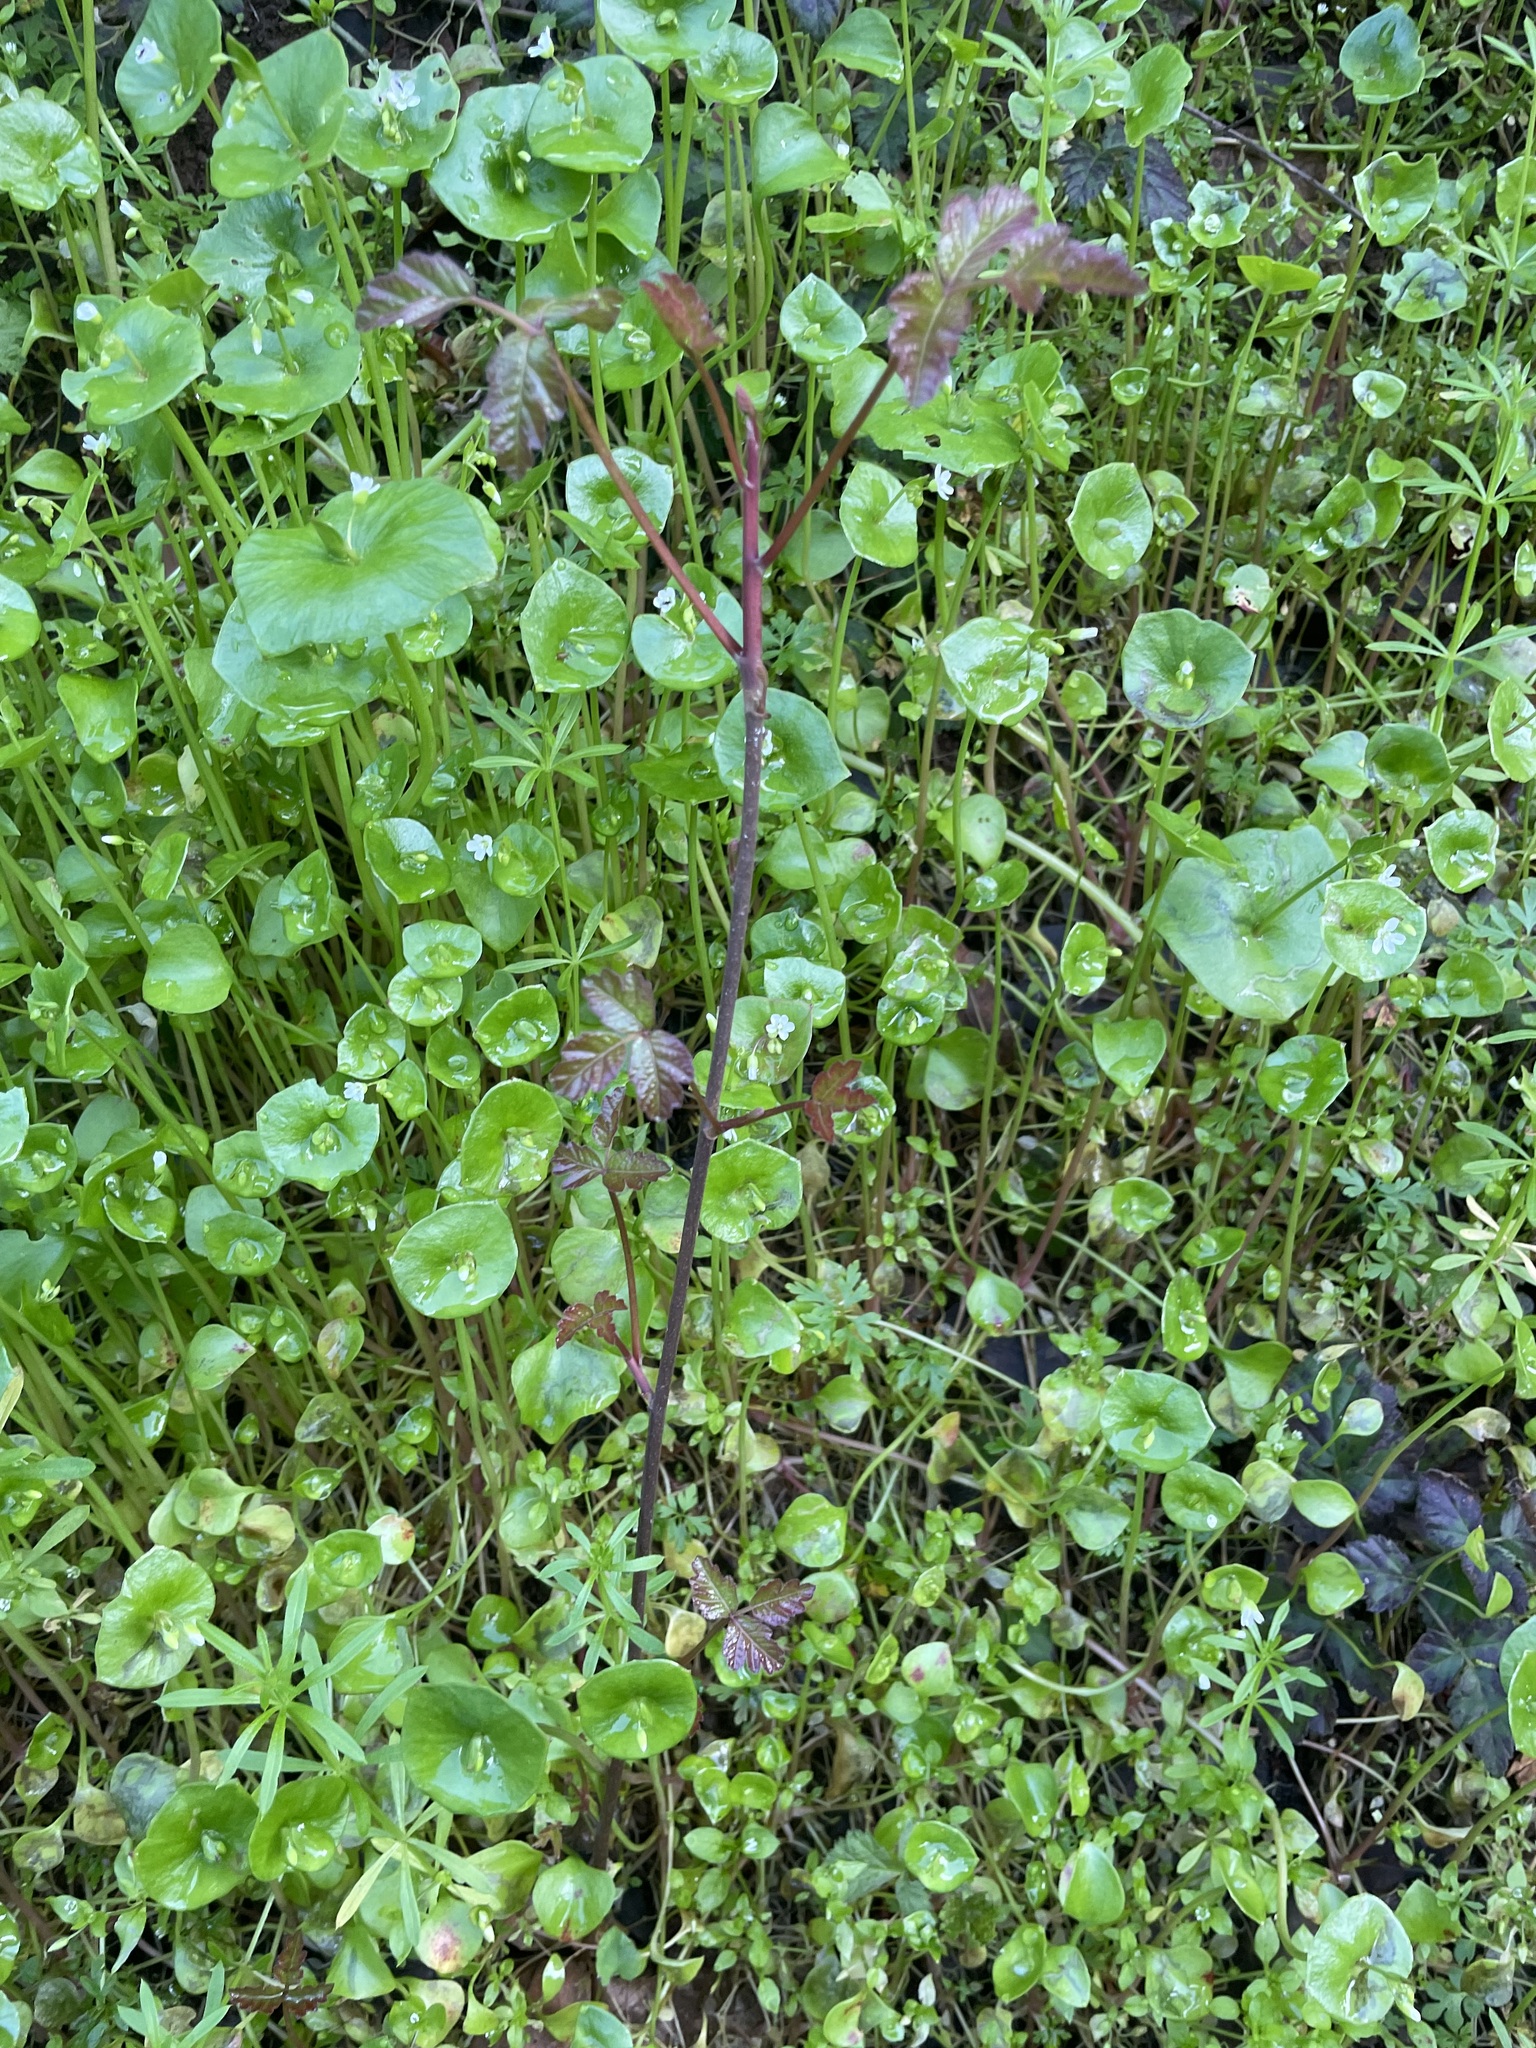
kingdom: Plantae
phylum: Tracheophyta
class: Magnoliopsida
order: Sapindales
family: Anacardiaceae
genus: Toxicodendron
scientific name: Toxicodendron diversilobum
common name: Pacific poison-oak
